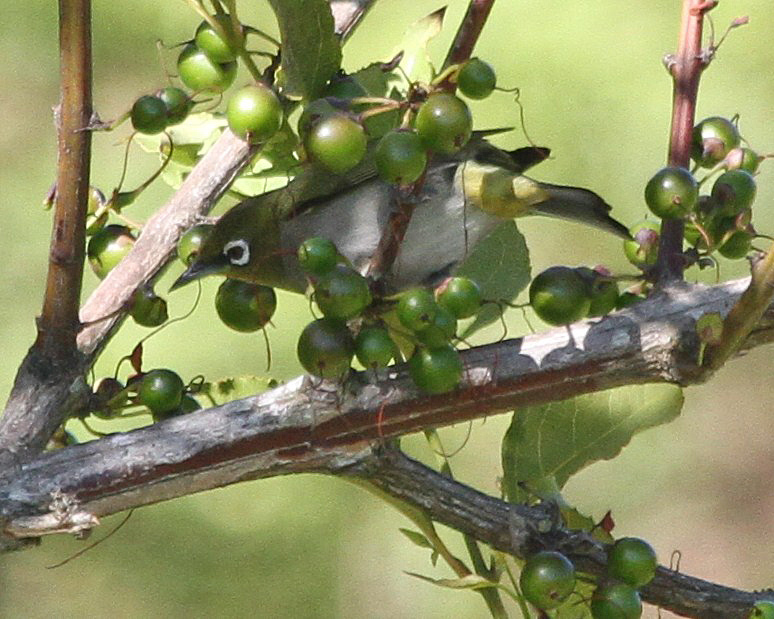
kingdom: Animalia
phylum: Chordata
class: Aves
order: Passeriformes
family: Zosteropidae
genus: Zosterops
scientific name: Zosterops virens
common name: Cape white-eye
